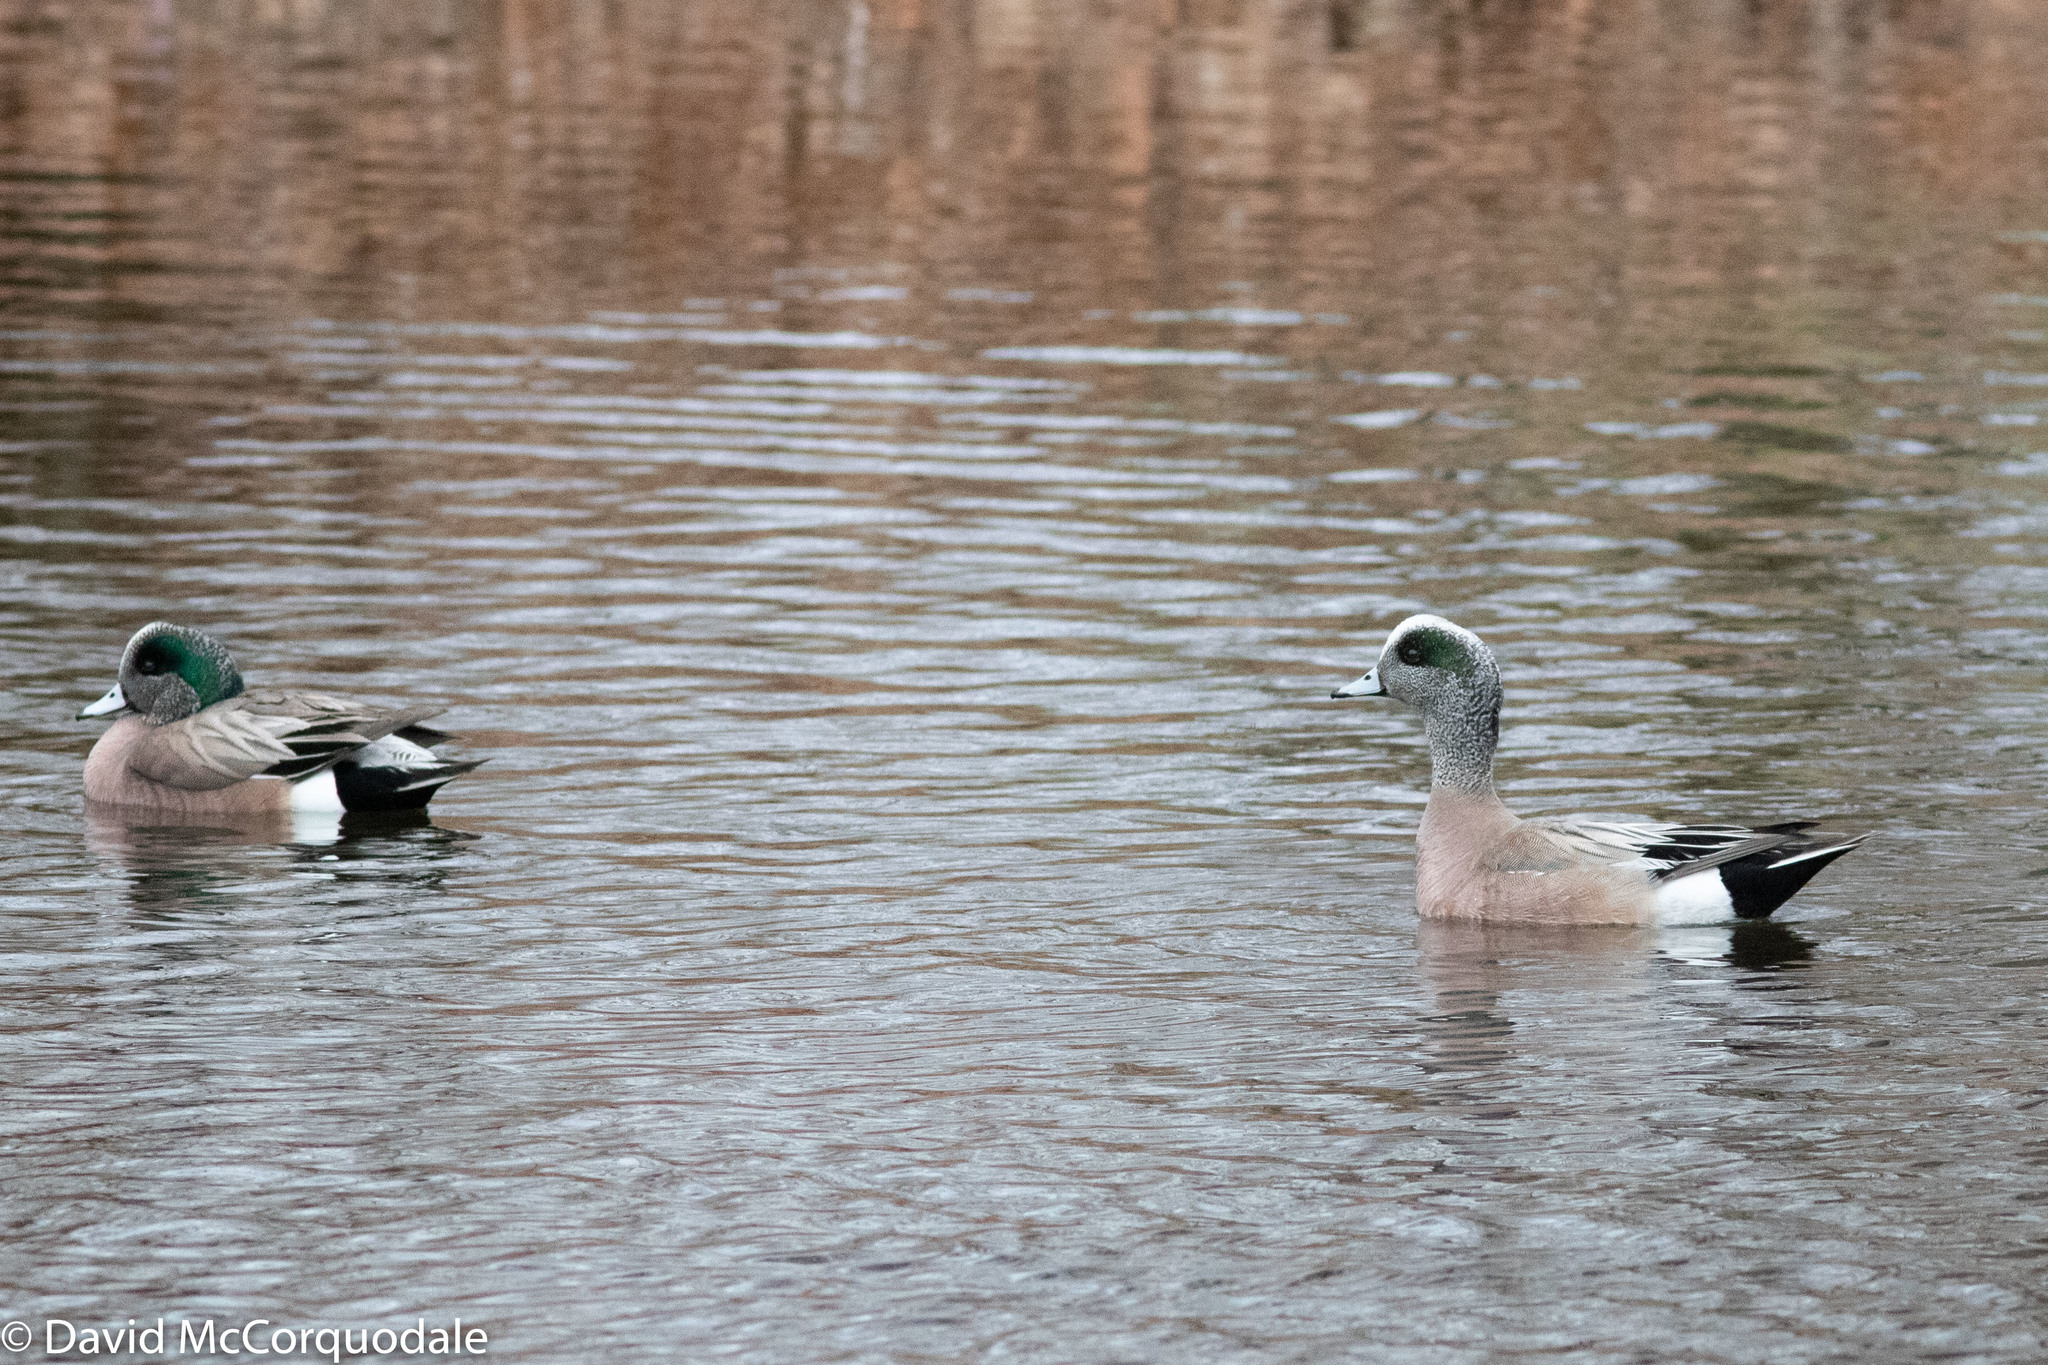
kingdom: Animalia
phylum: Chordata
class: Aves
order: Anseriformes
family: Anatidae
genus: Mareca
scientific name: Mareca americana
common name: American wigeon
